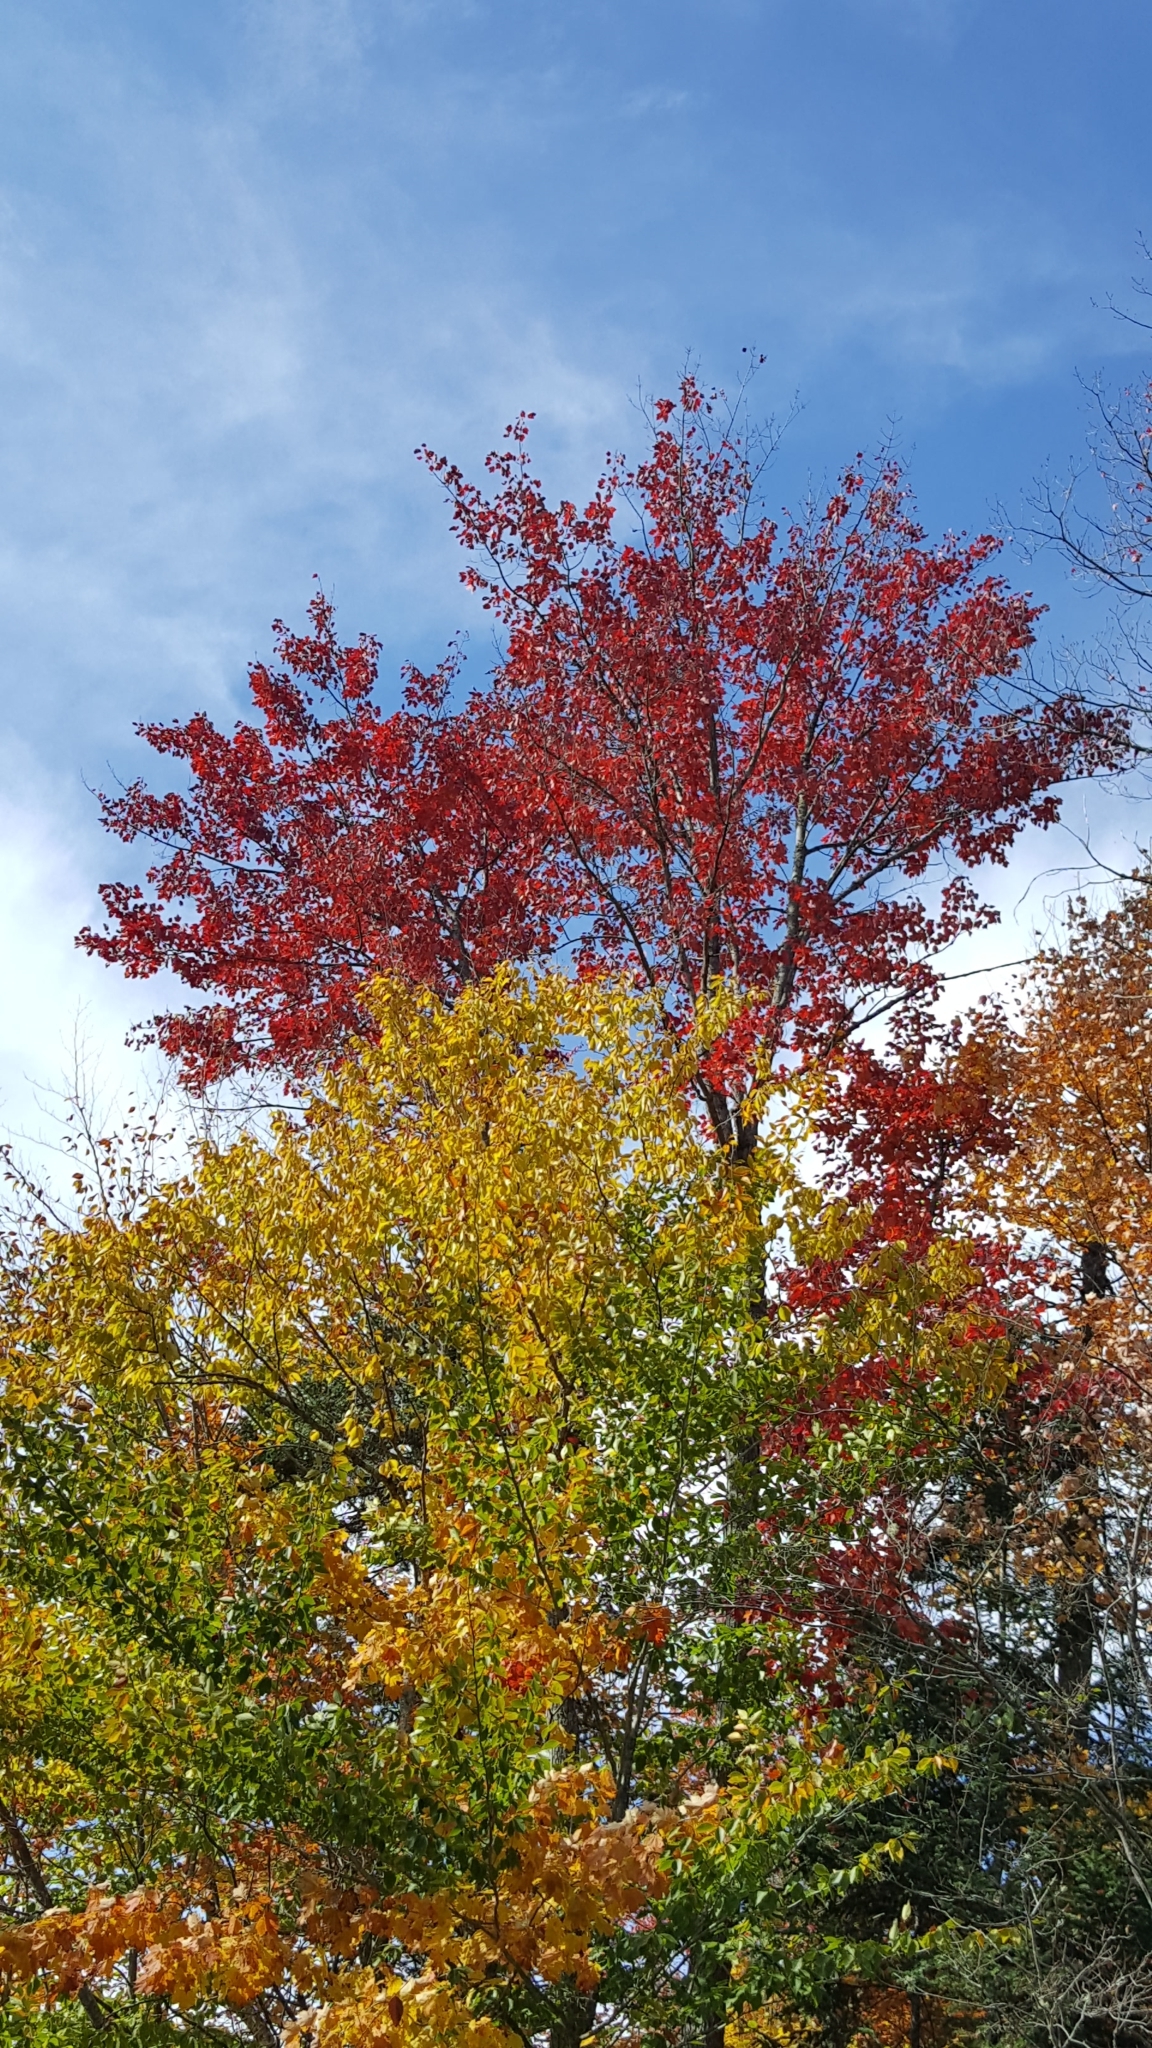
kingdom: Plantae
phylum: Tracheophyta
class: Magnoliopsida
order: Sapindales
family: Sapindaceae
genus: Acer
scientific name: Acer rubrum
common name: Red maple
